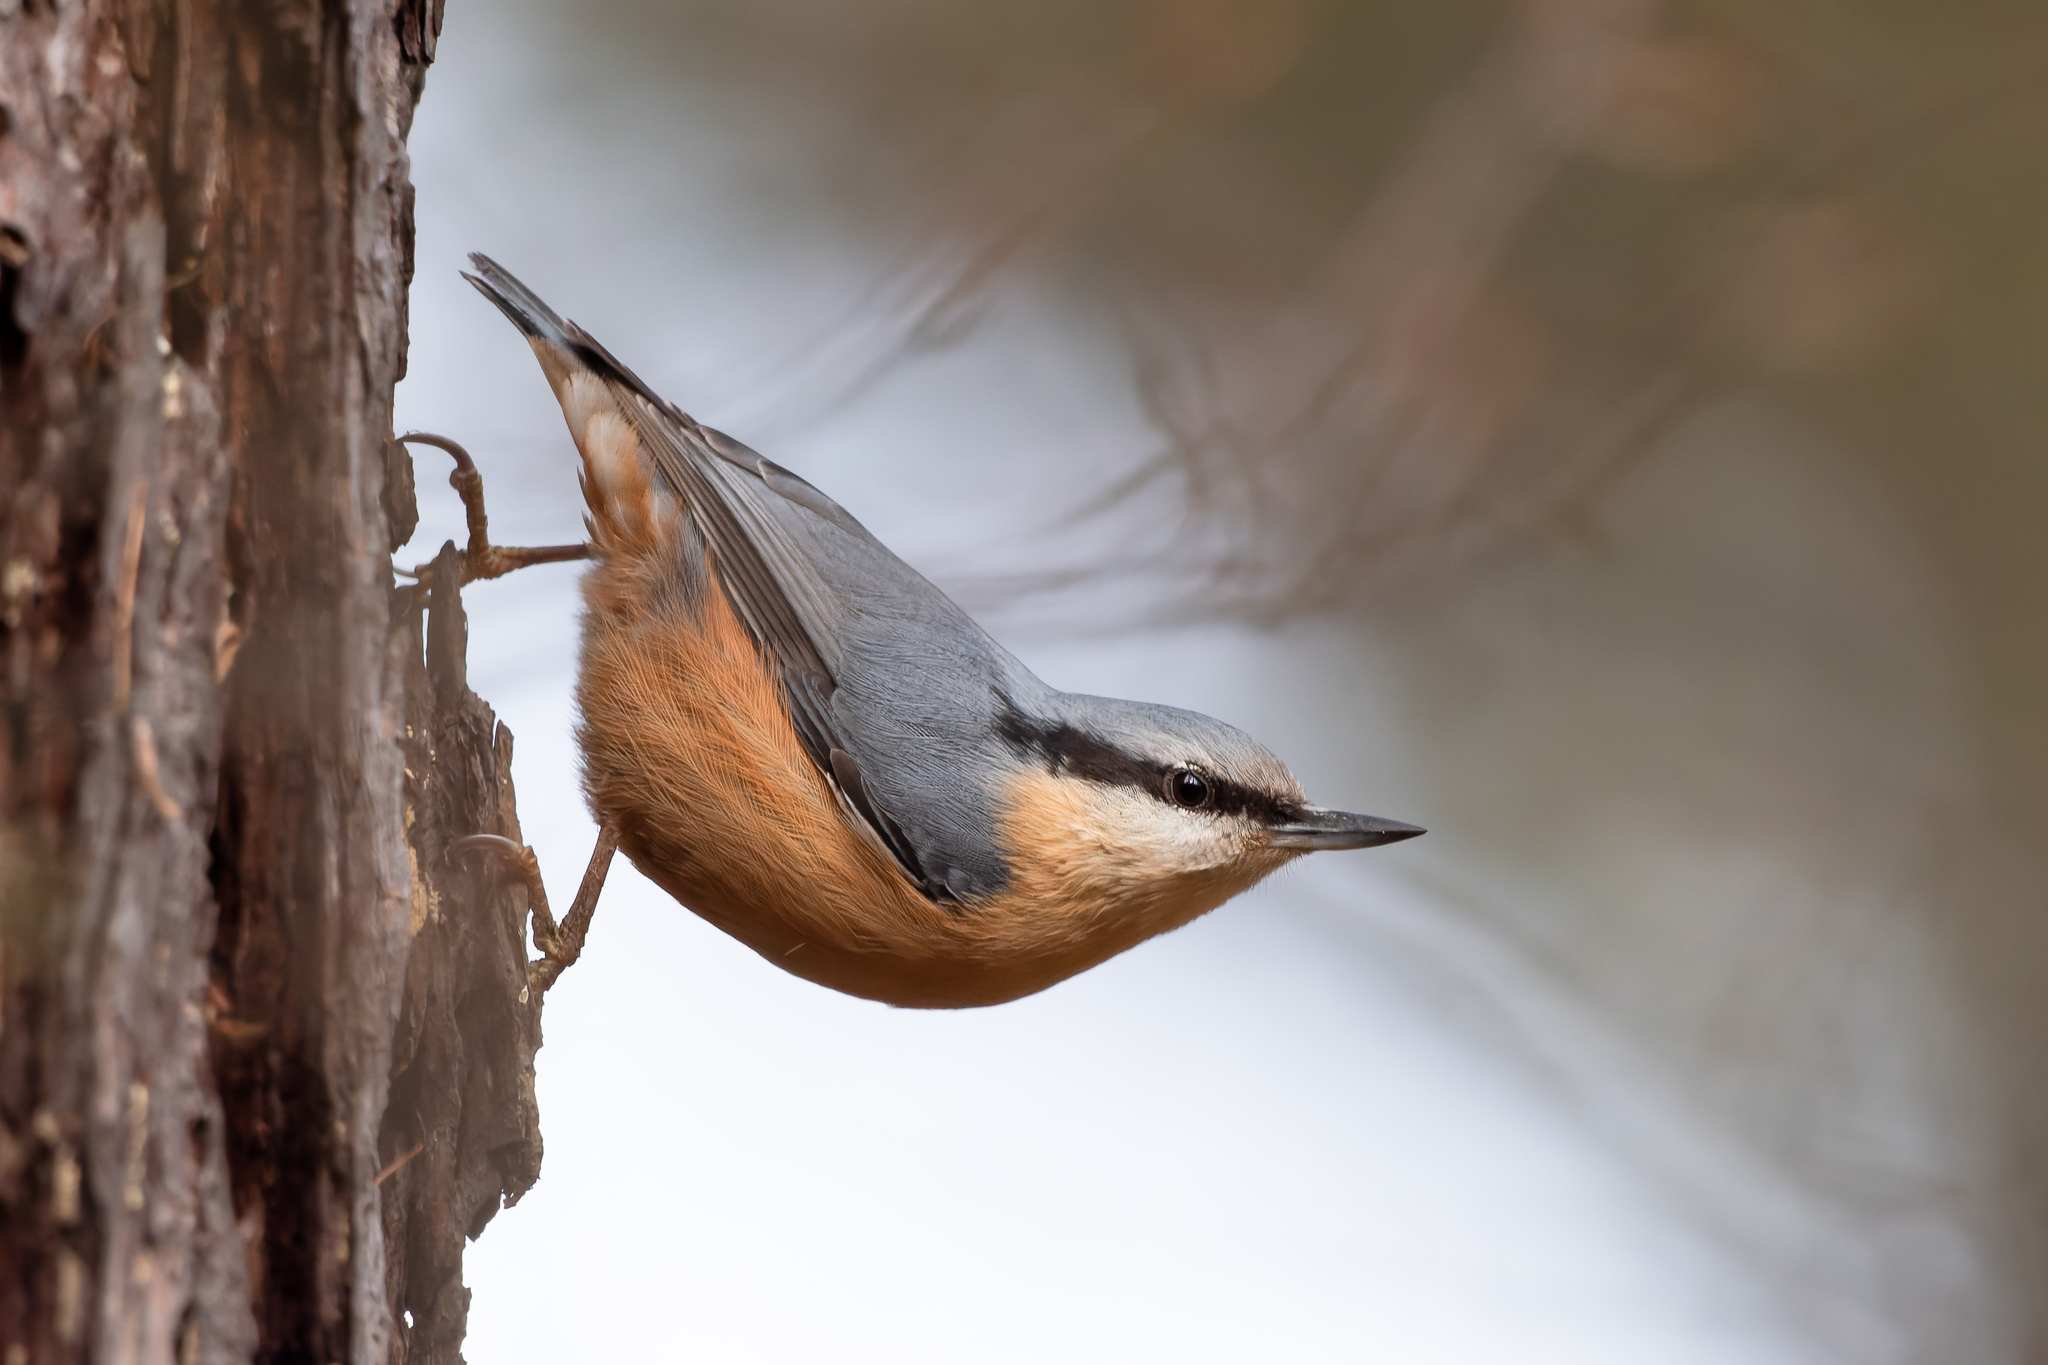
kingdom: Animalia
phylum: Chordata
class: Aves
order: Passeriformes
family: Sittidae
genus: Sitta
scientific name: Sitta europaea
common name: Eurasian nuthatch
